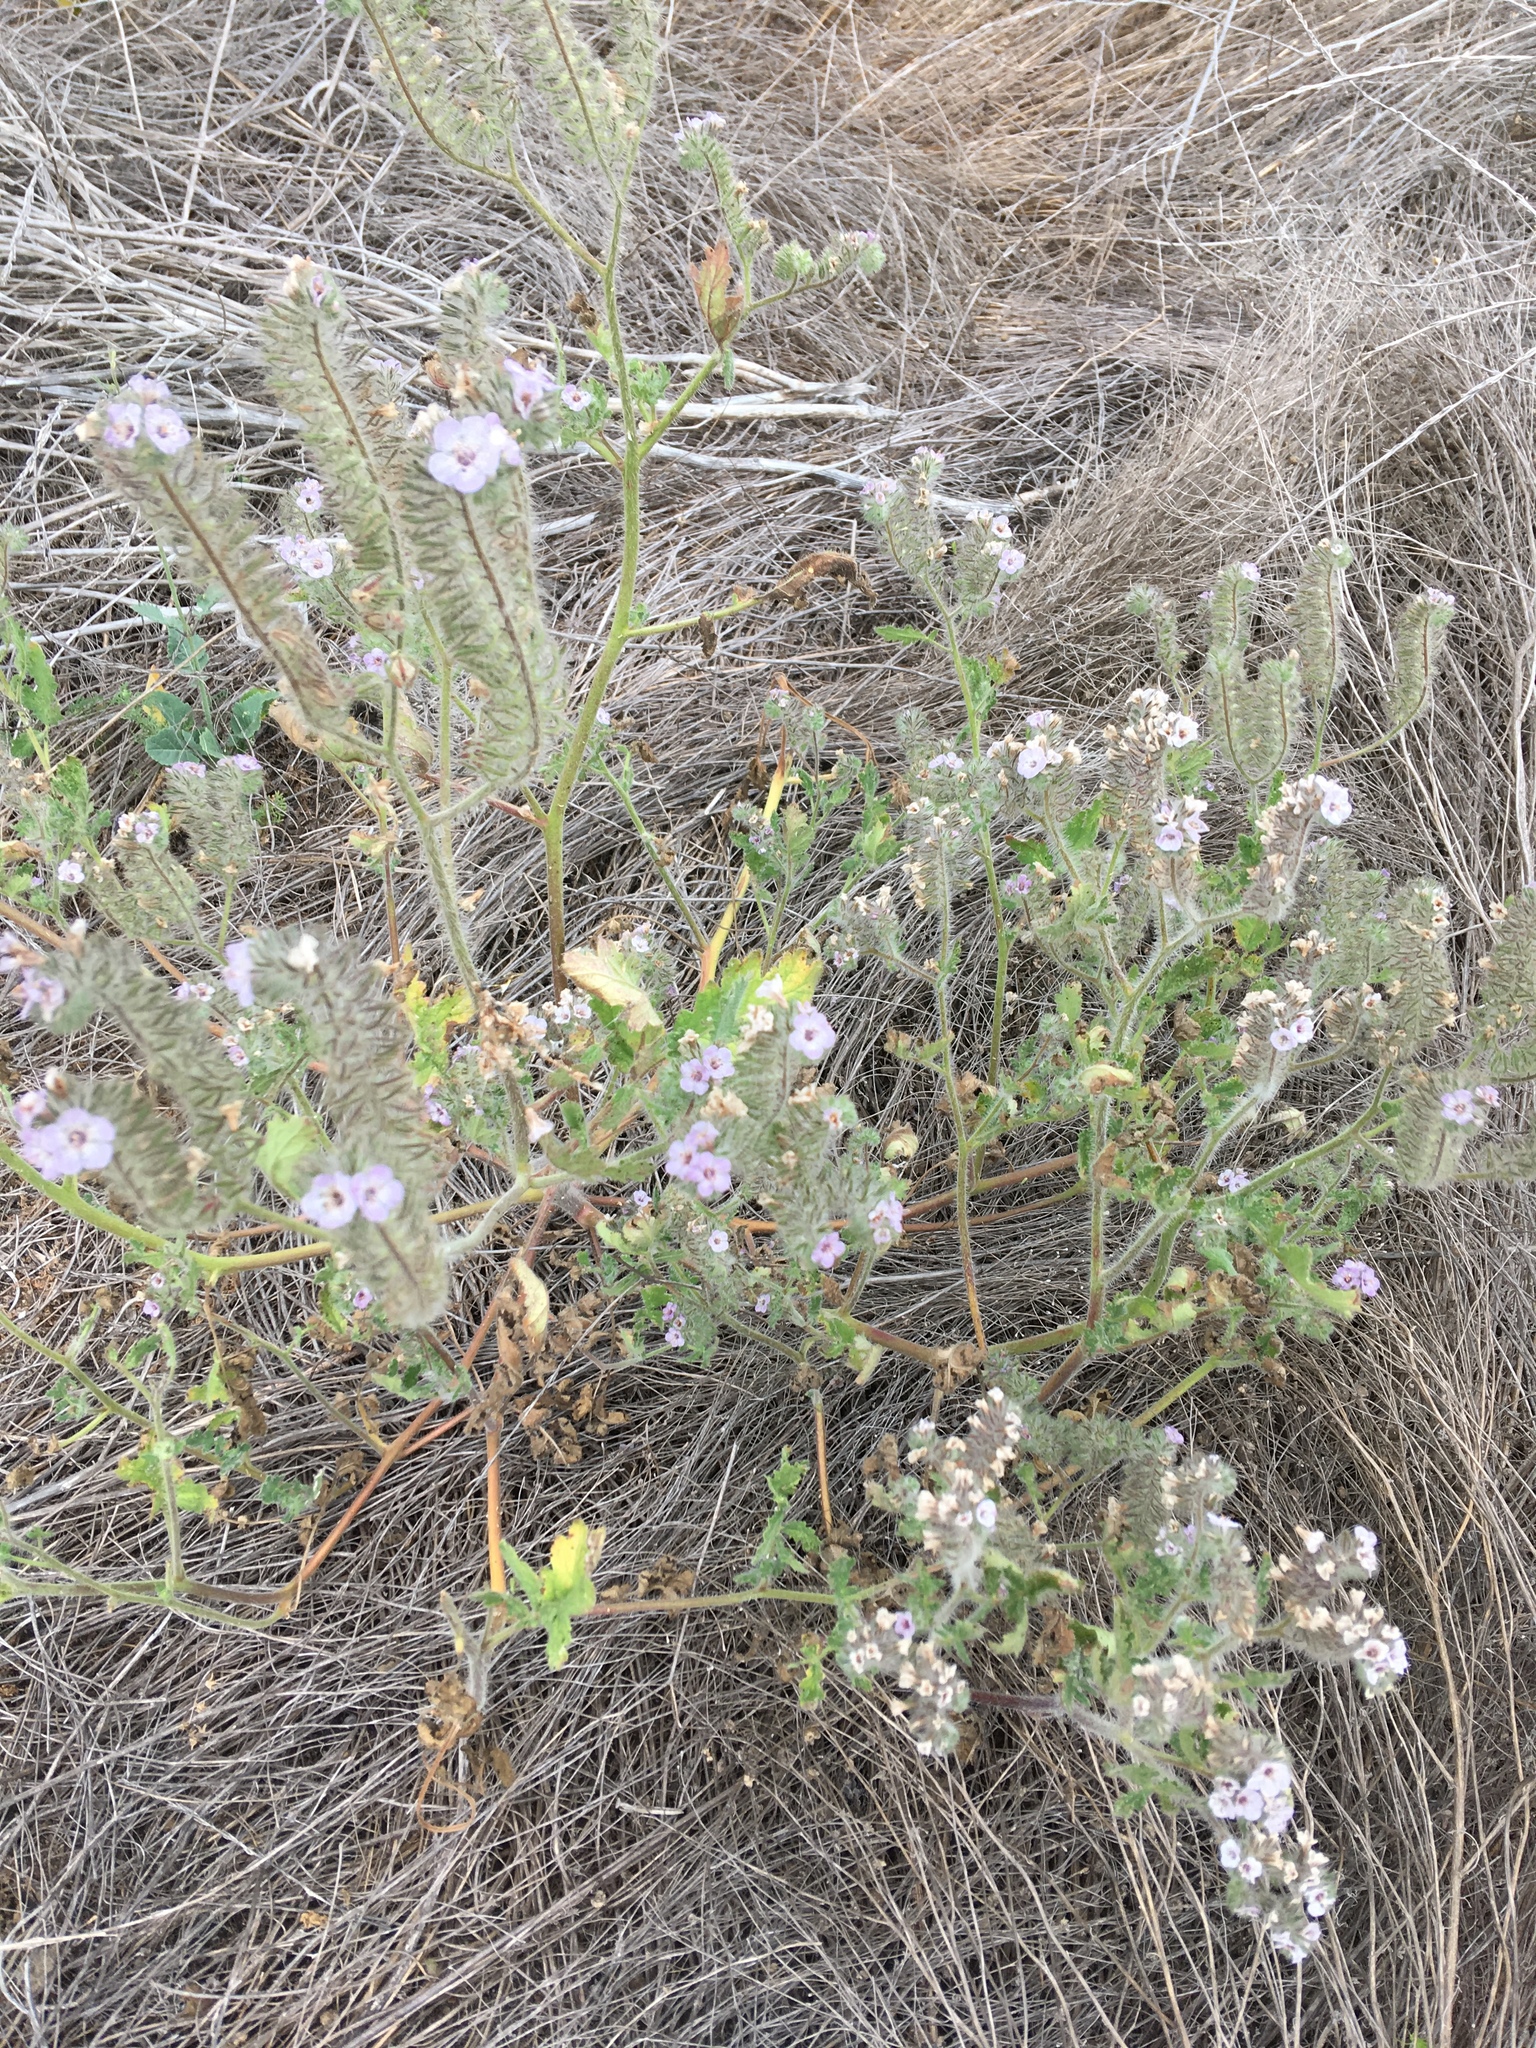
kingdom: Plantae
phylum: Tracheophyta
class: Magnoliopsida
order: Boraginales
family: Hydrophyllaceae
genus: Phacelia
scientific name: Phacelia cicutaria
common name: Caterpillar phacelia
